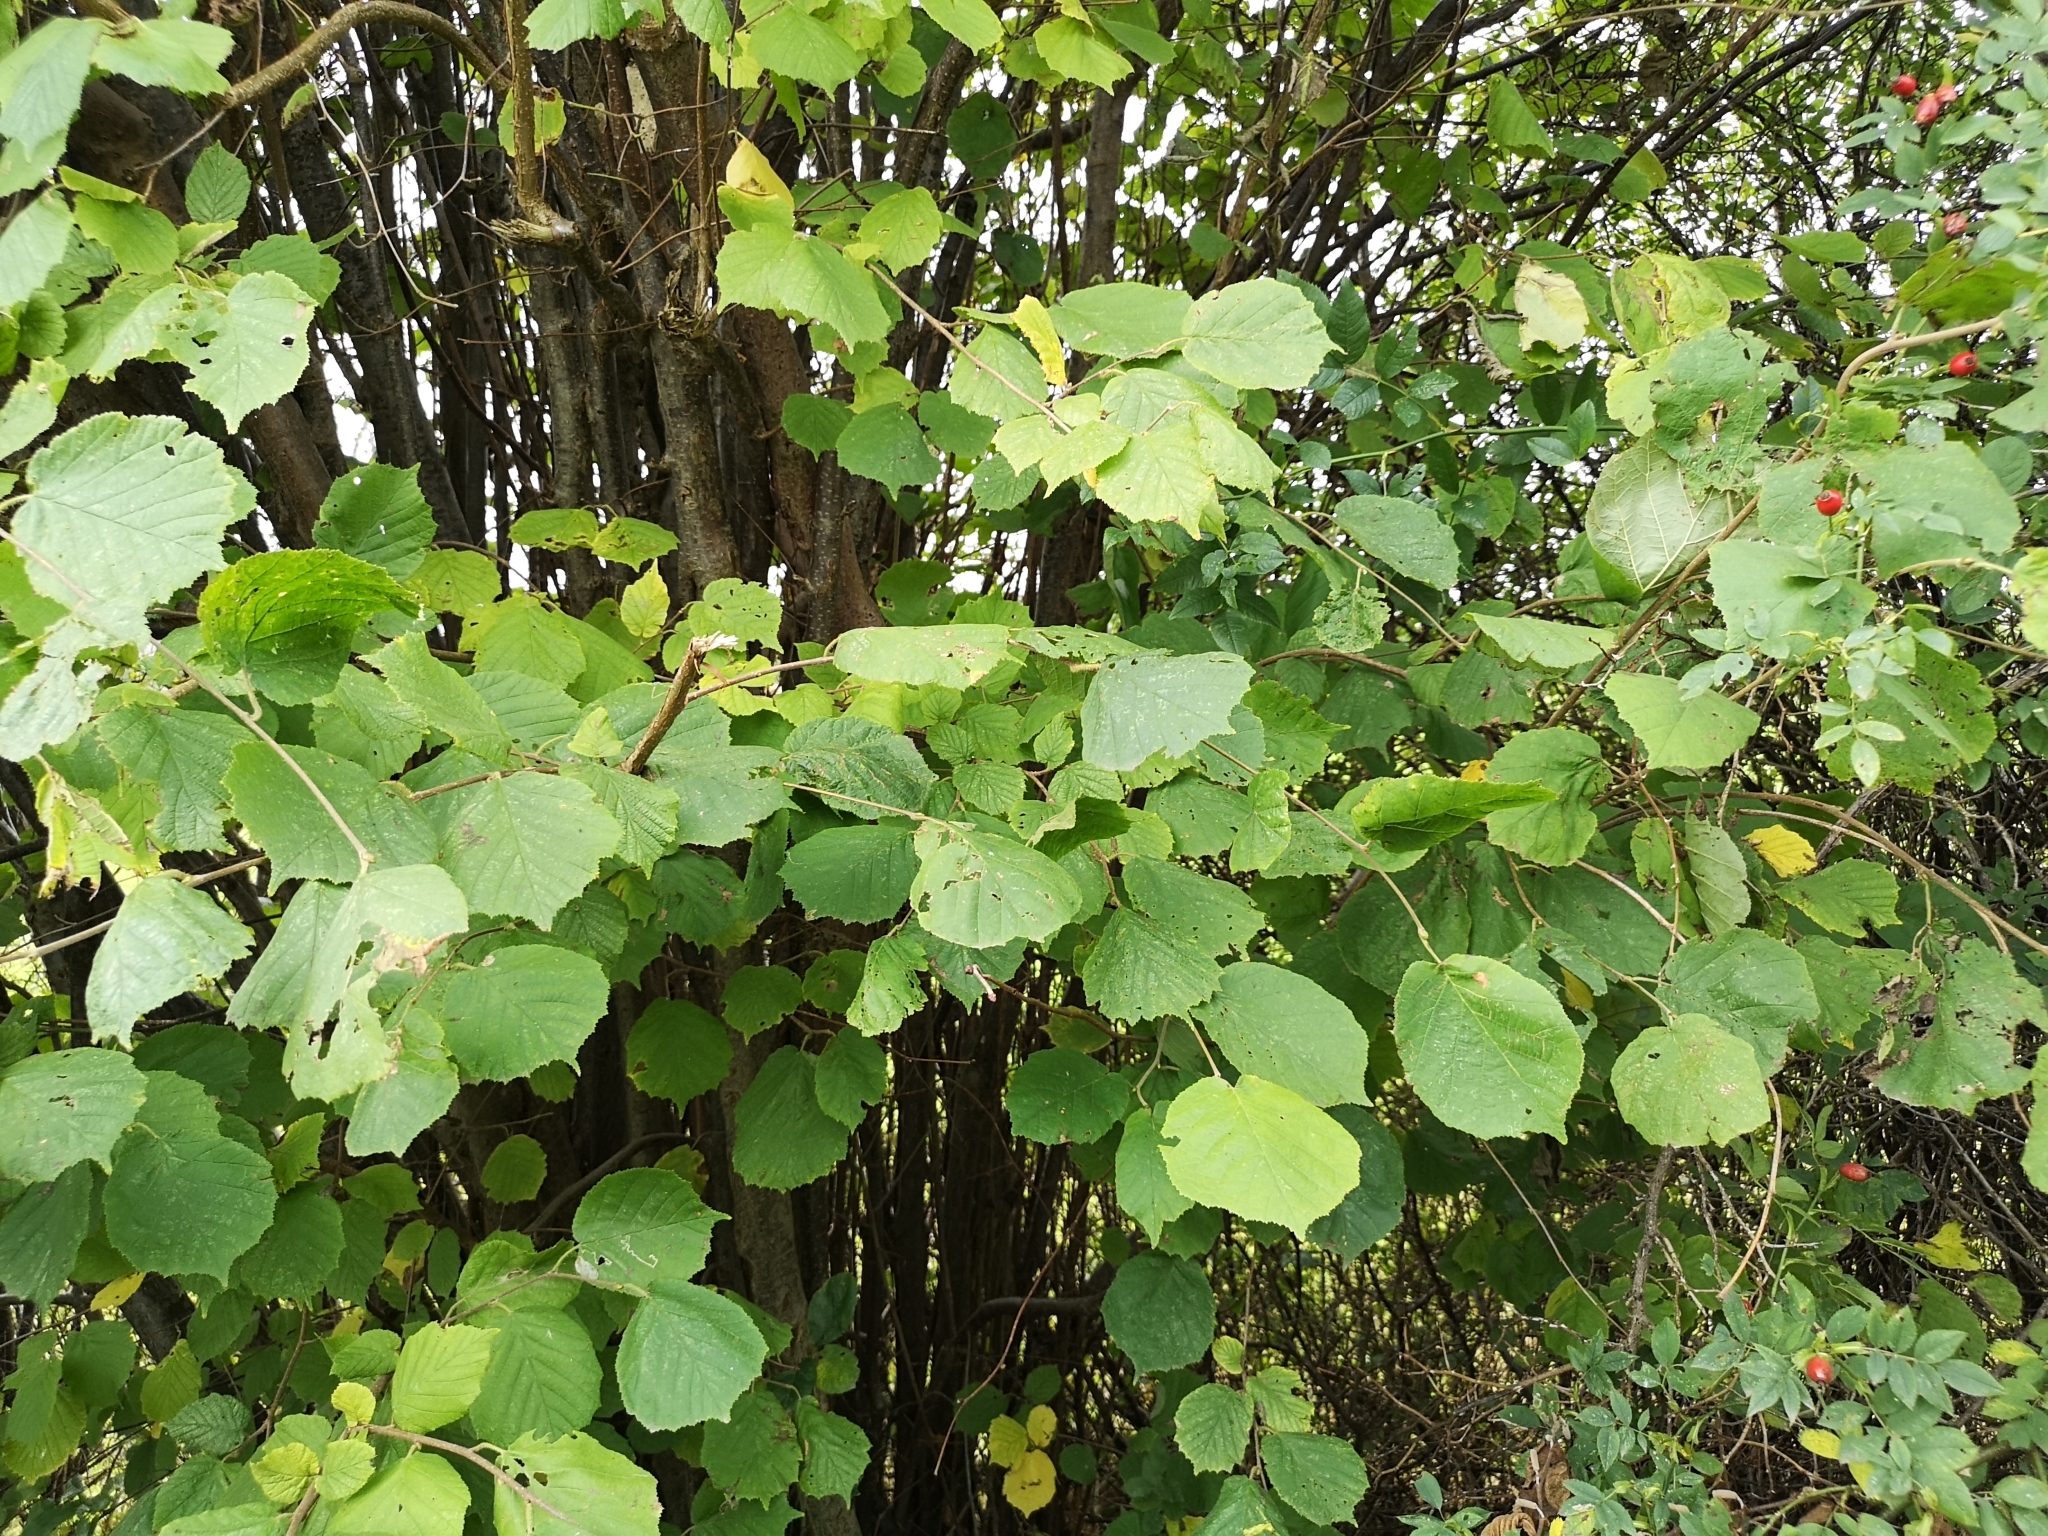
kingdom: Plantae
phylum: Tracheophyta
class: Magnoliopsida
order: Fagales
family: Betulaceae
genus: Corylus
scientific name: Corylus avellana
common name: European hazel
